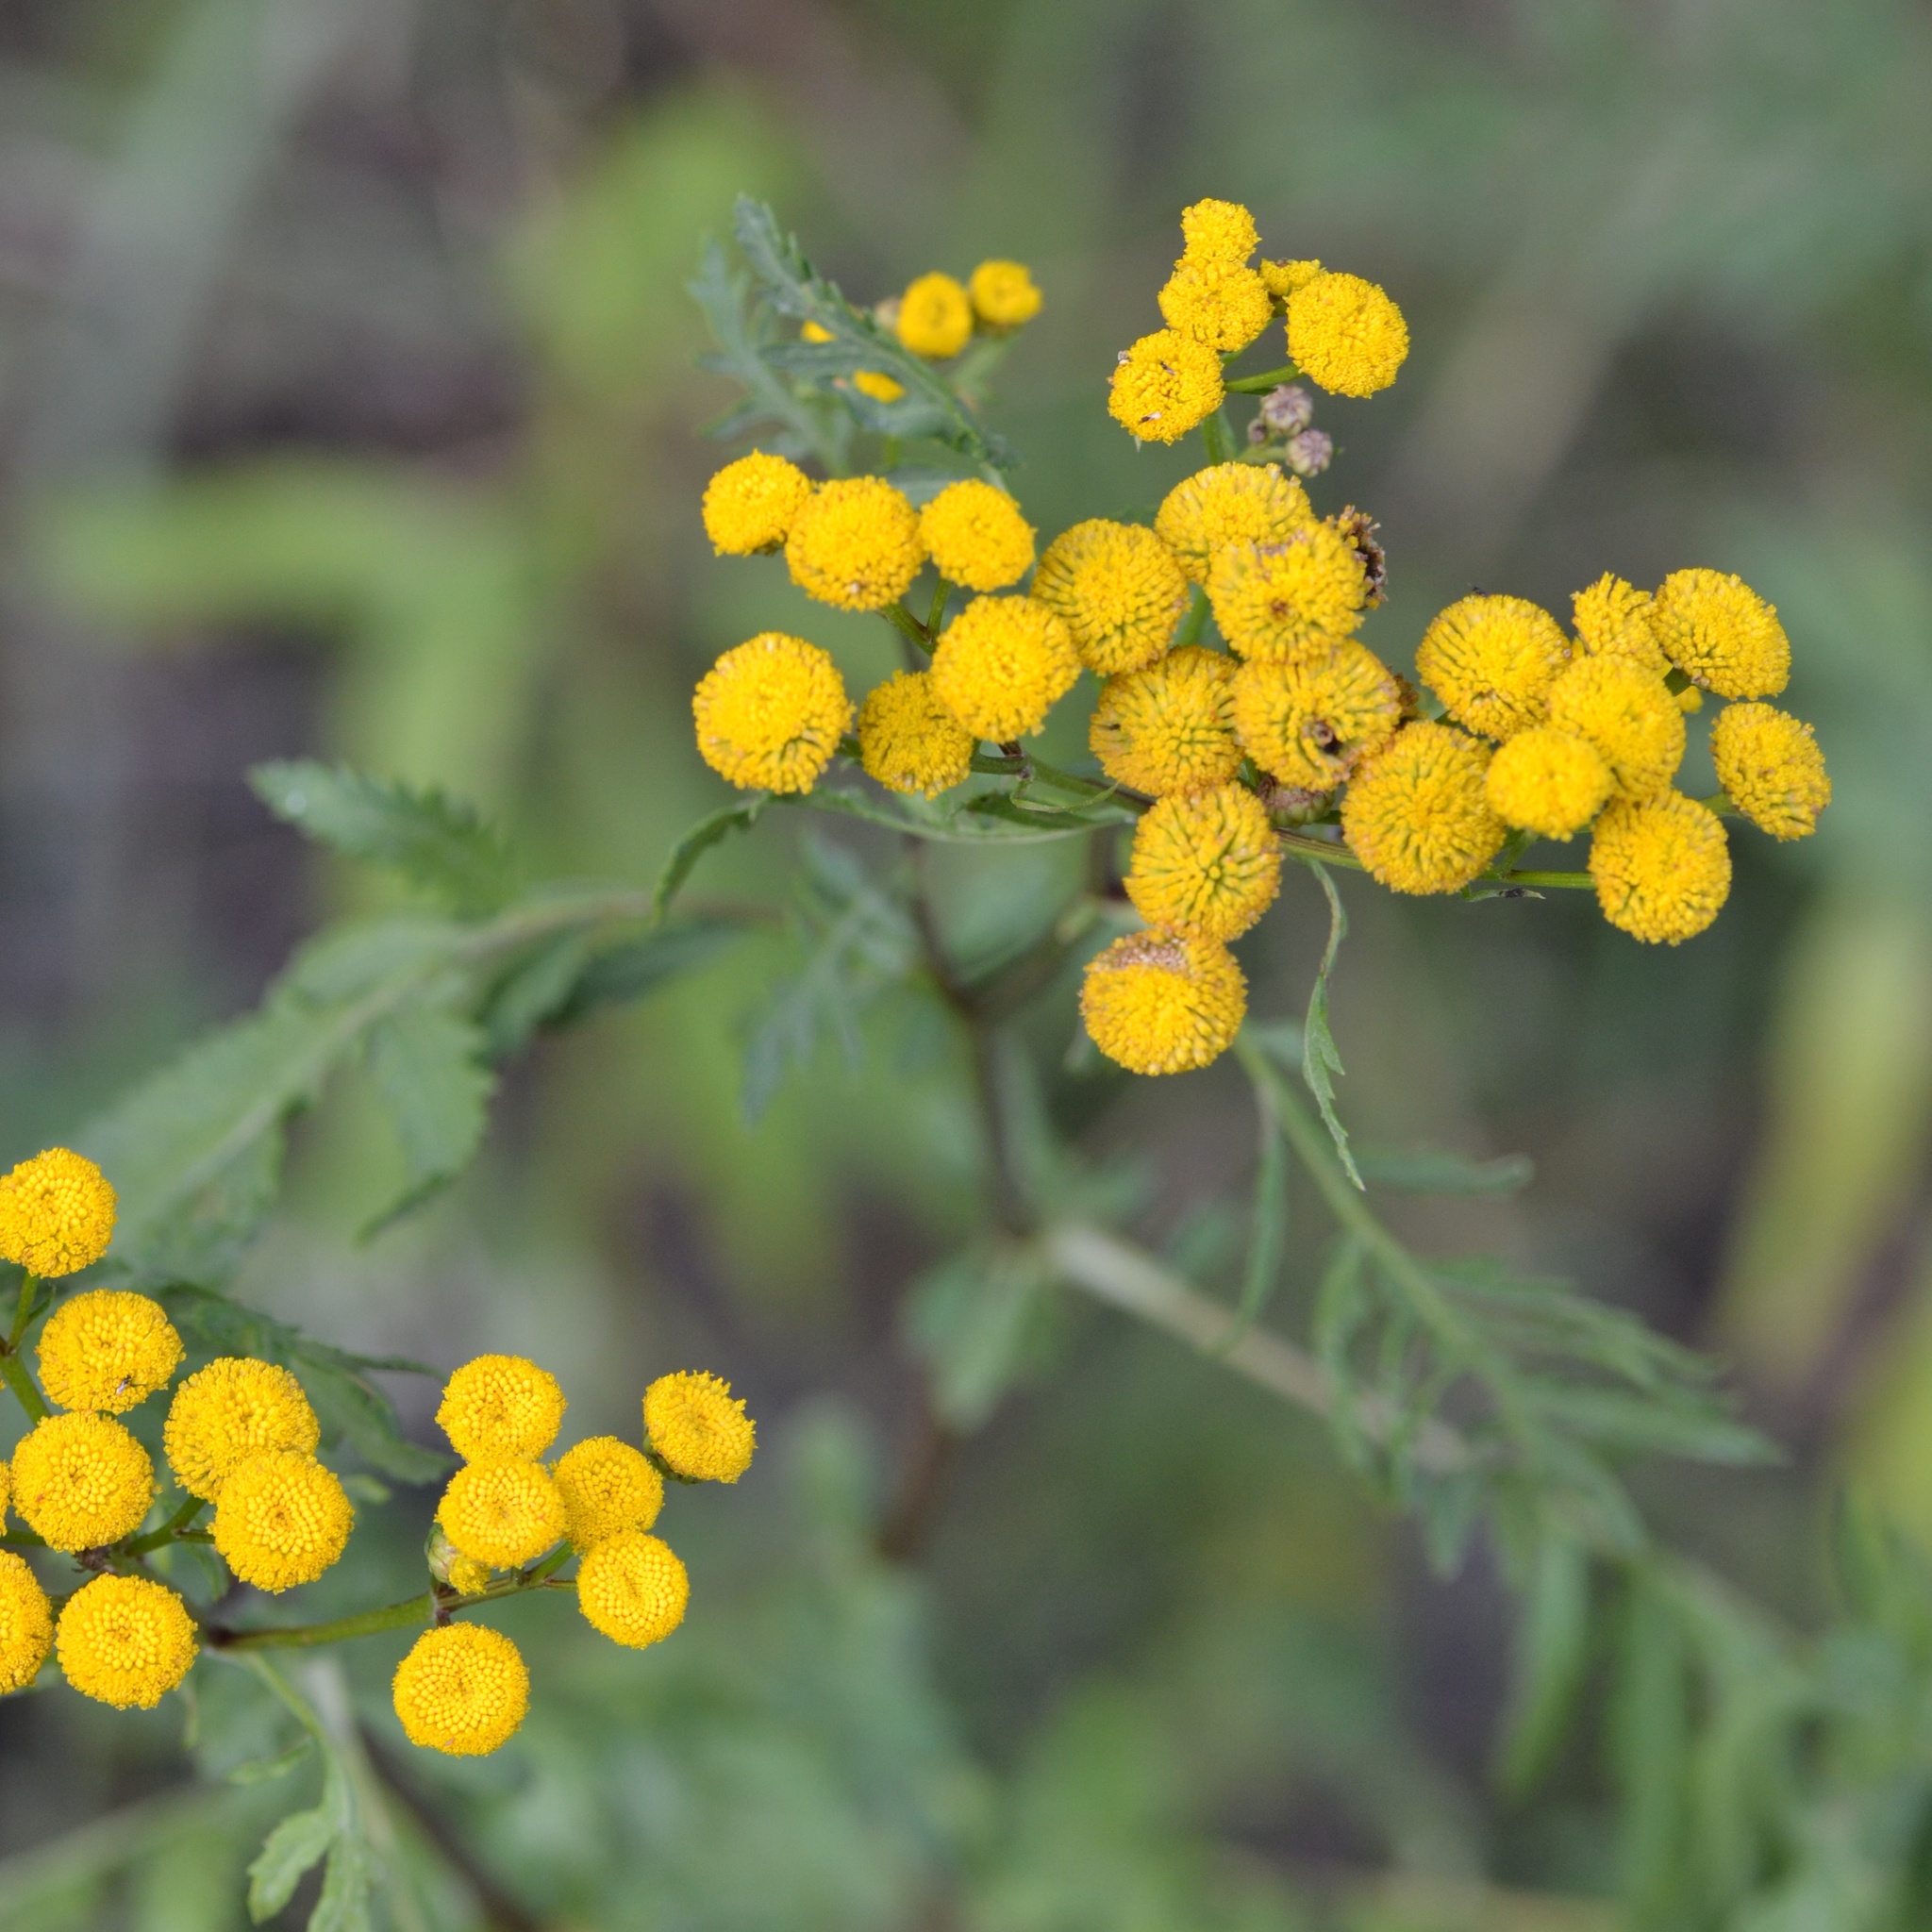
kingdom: Plantae
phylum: Tracheophyta
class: Magnoliopsida
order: Asterales
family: Asteraceae
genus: Tanacetum
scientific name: Tanacetum vulgare
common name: Common tansy
